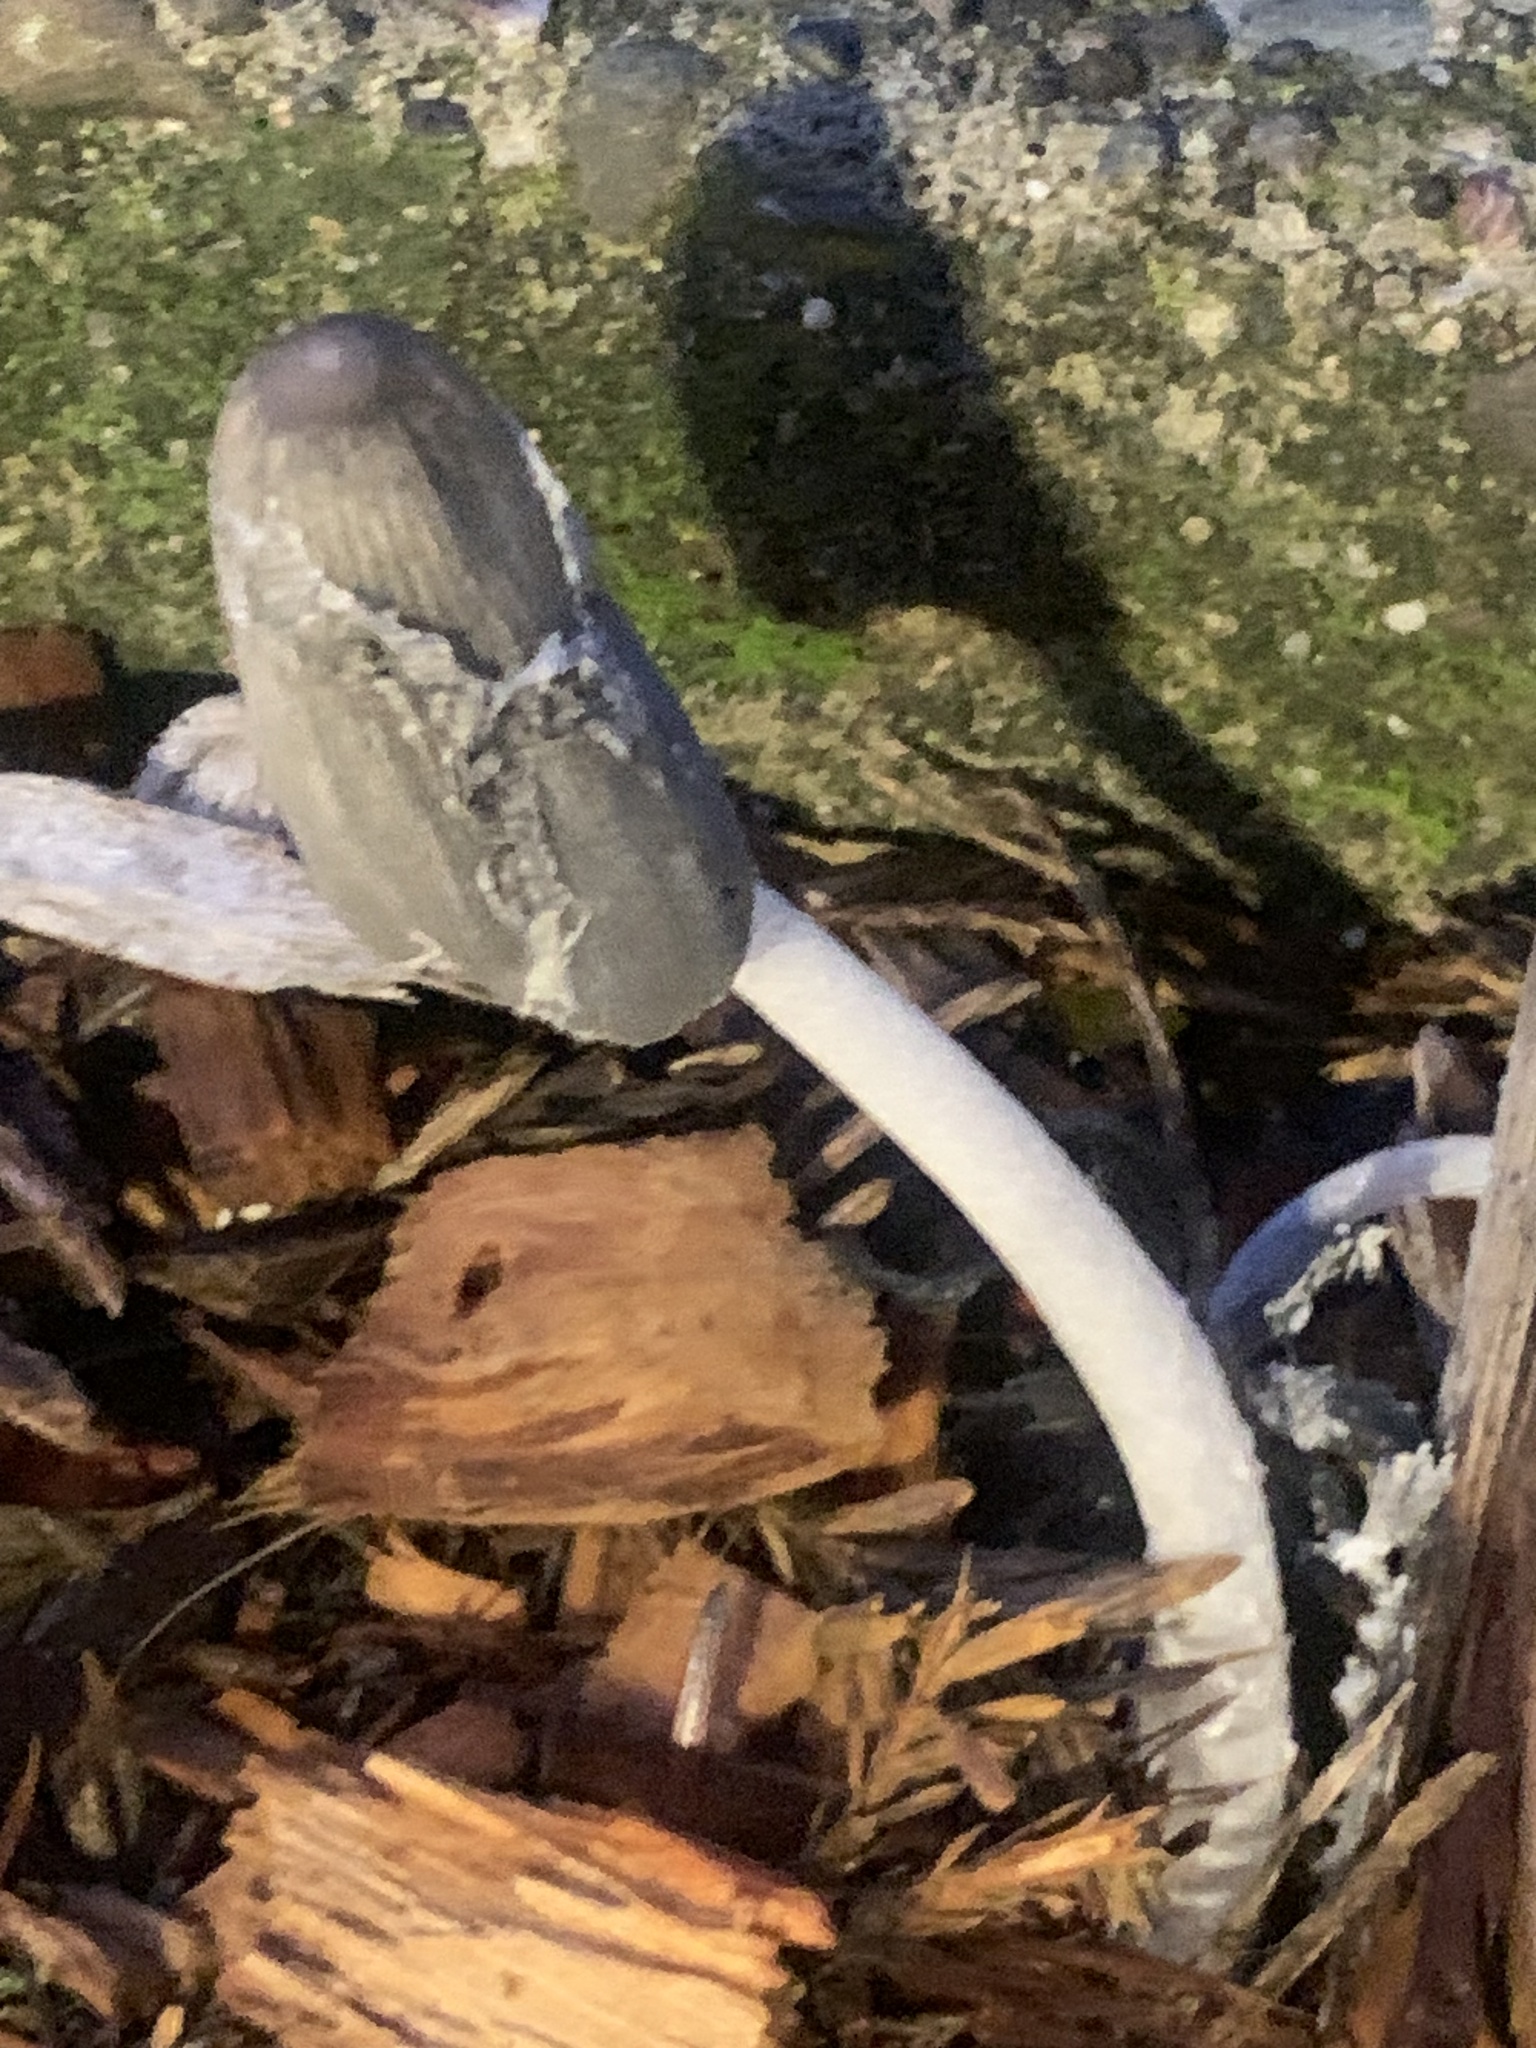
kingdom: Fungi
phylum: Basidiomycota
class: Agaricomycetes
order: Agaricales
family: Psathyrellaceae
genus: Coprinopsis
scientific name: Coprinopsis lagopus
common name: Hare'sfoot inkcap
